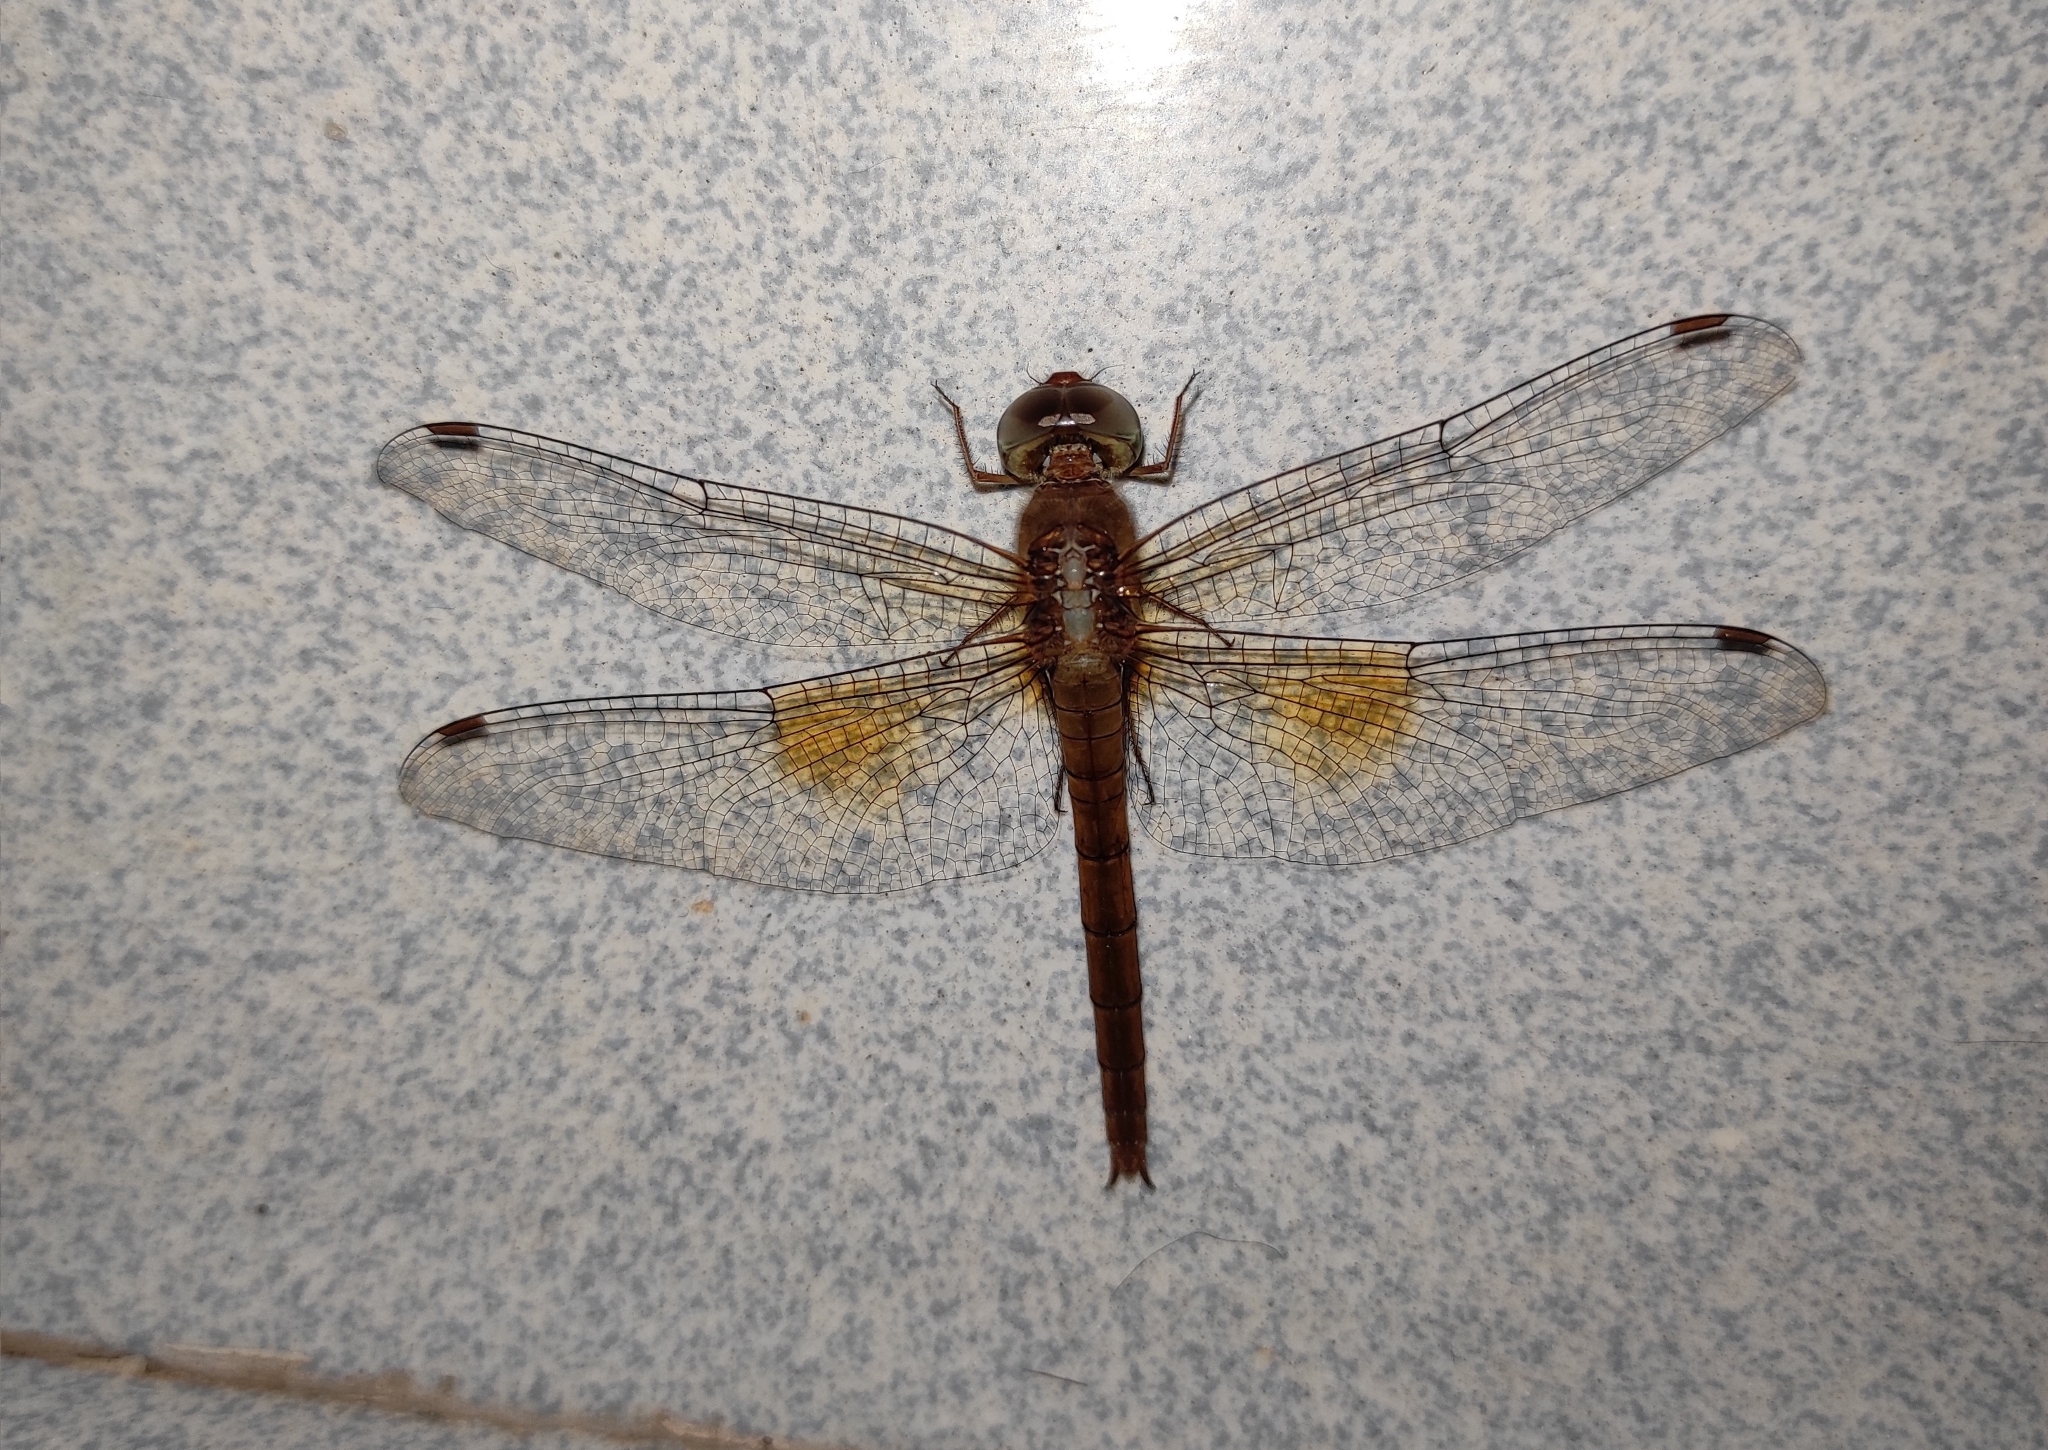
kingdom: Animalia
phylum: Arthropoda
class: Insecta
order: Odonata
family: Libellulidae
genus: Tholymis
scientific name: Tholymis tillarga
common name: Coral-tailed cloud wing
